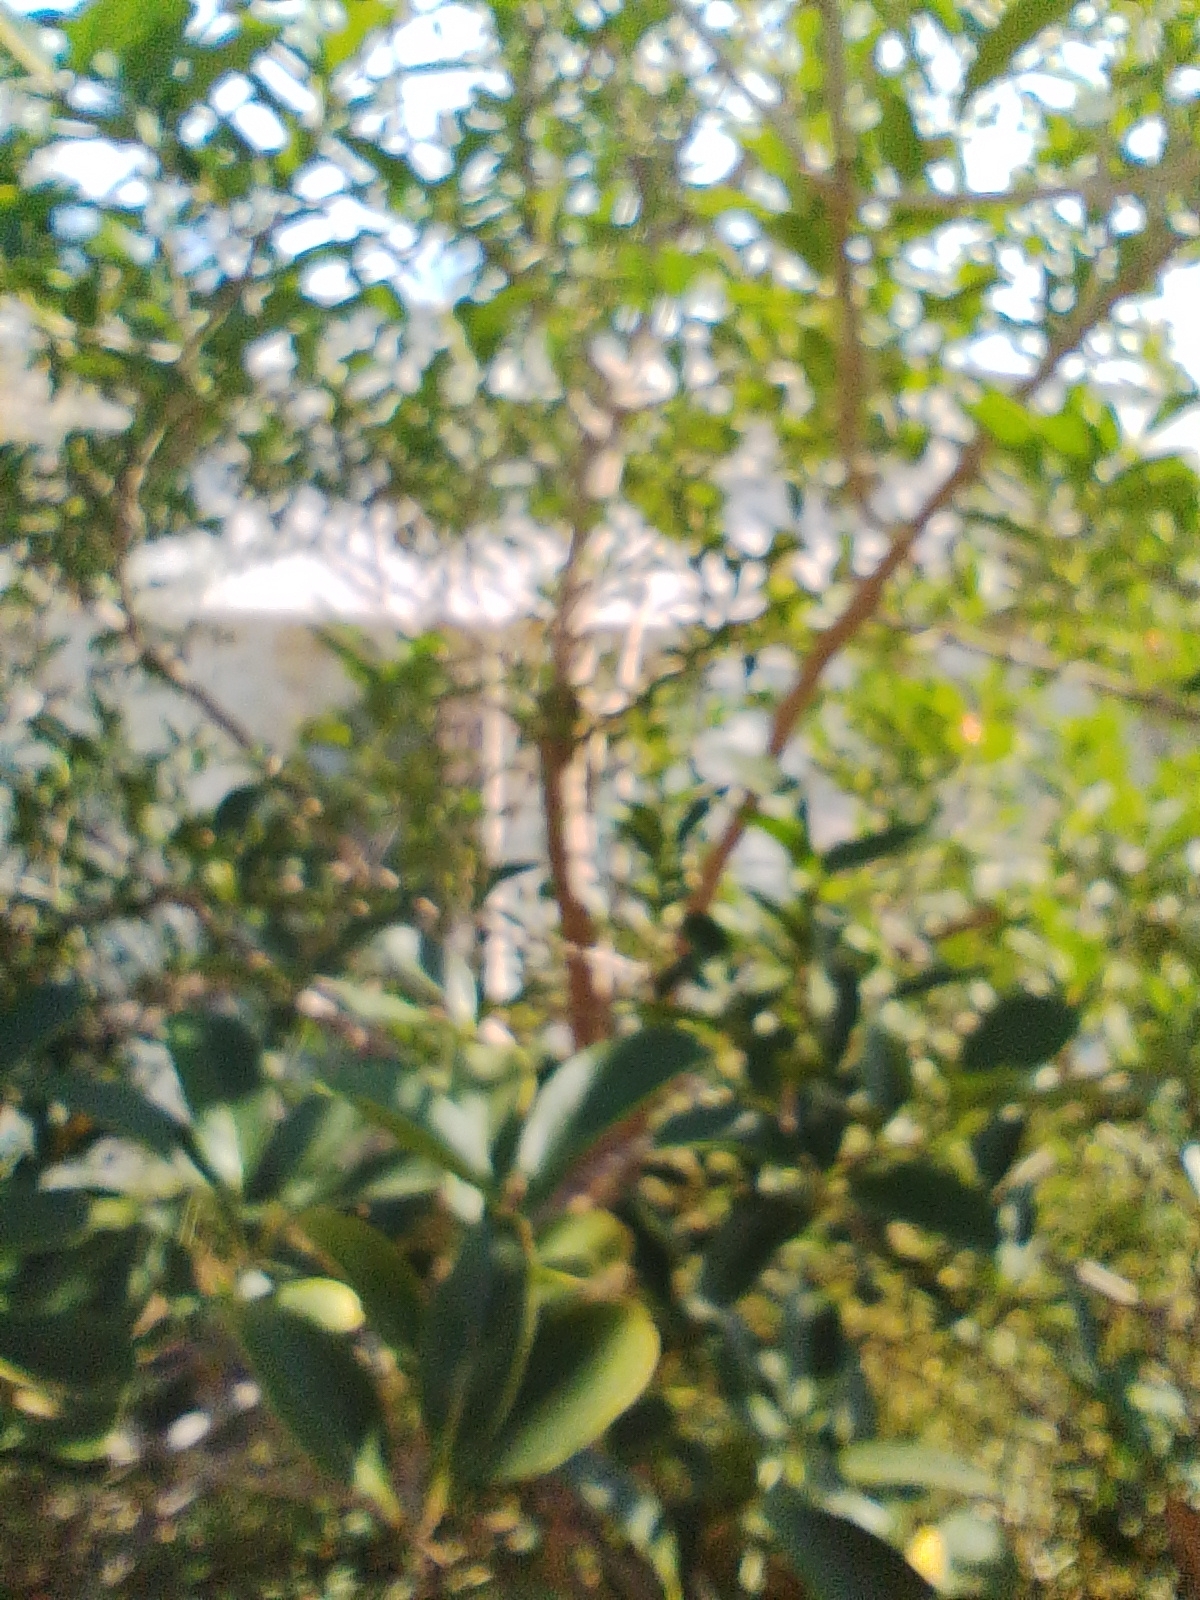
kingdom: Plantae
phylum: Tracheophyta
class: Magnoliopsida
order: Lamiales
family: Verbenaceae
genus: Citharexylum
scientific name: Citharexylum montevidense
